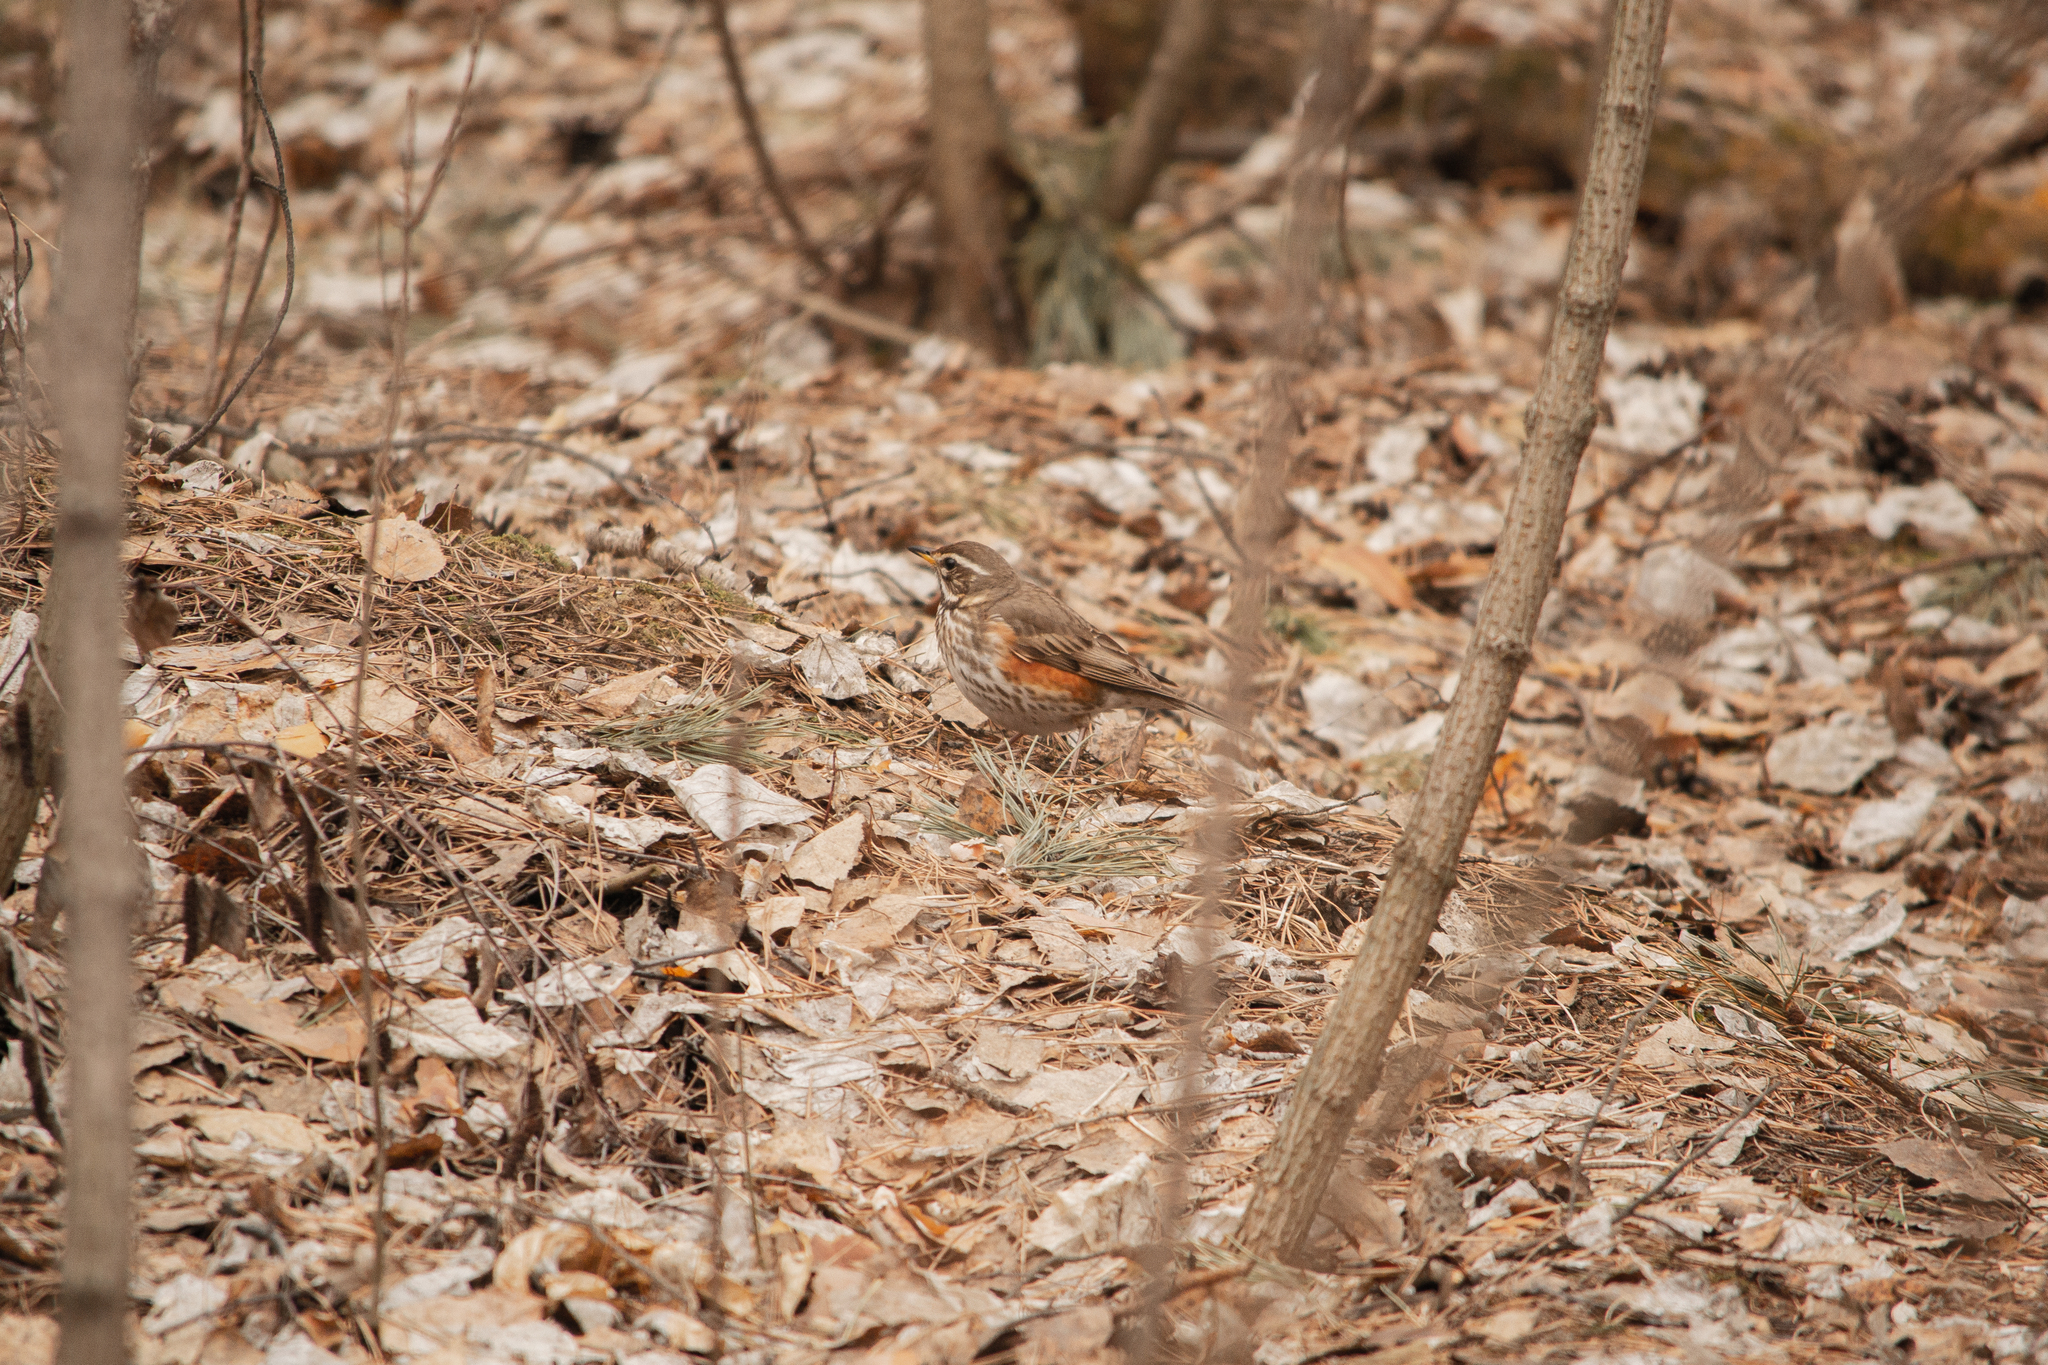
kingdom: Animalia
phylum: Chordata
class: Aves
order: Passeriformes
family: Turdidae
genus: Turdus
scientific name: Turdus iliacus
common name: Redwing
